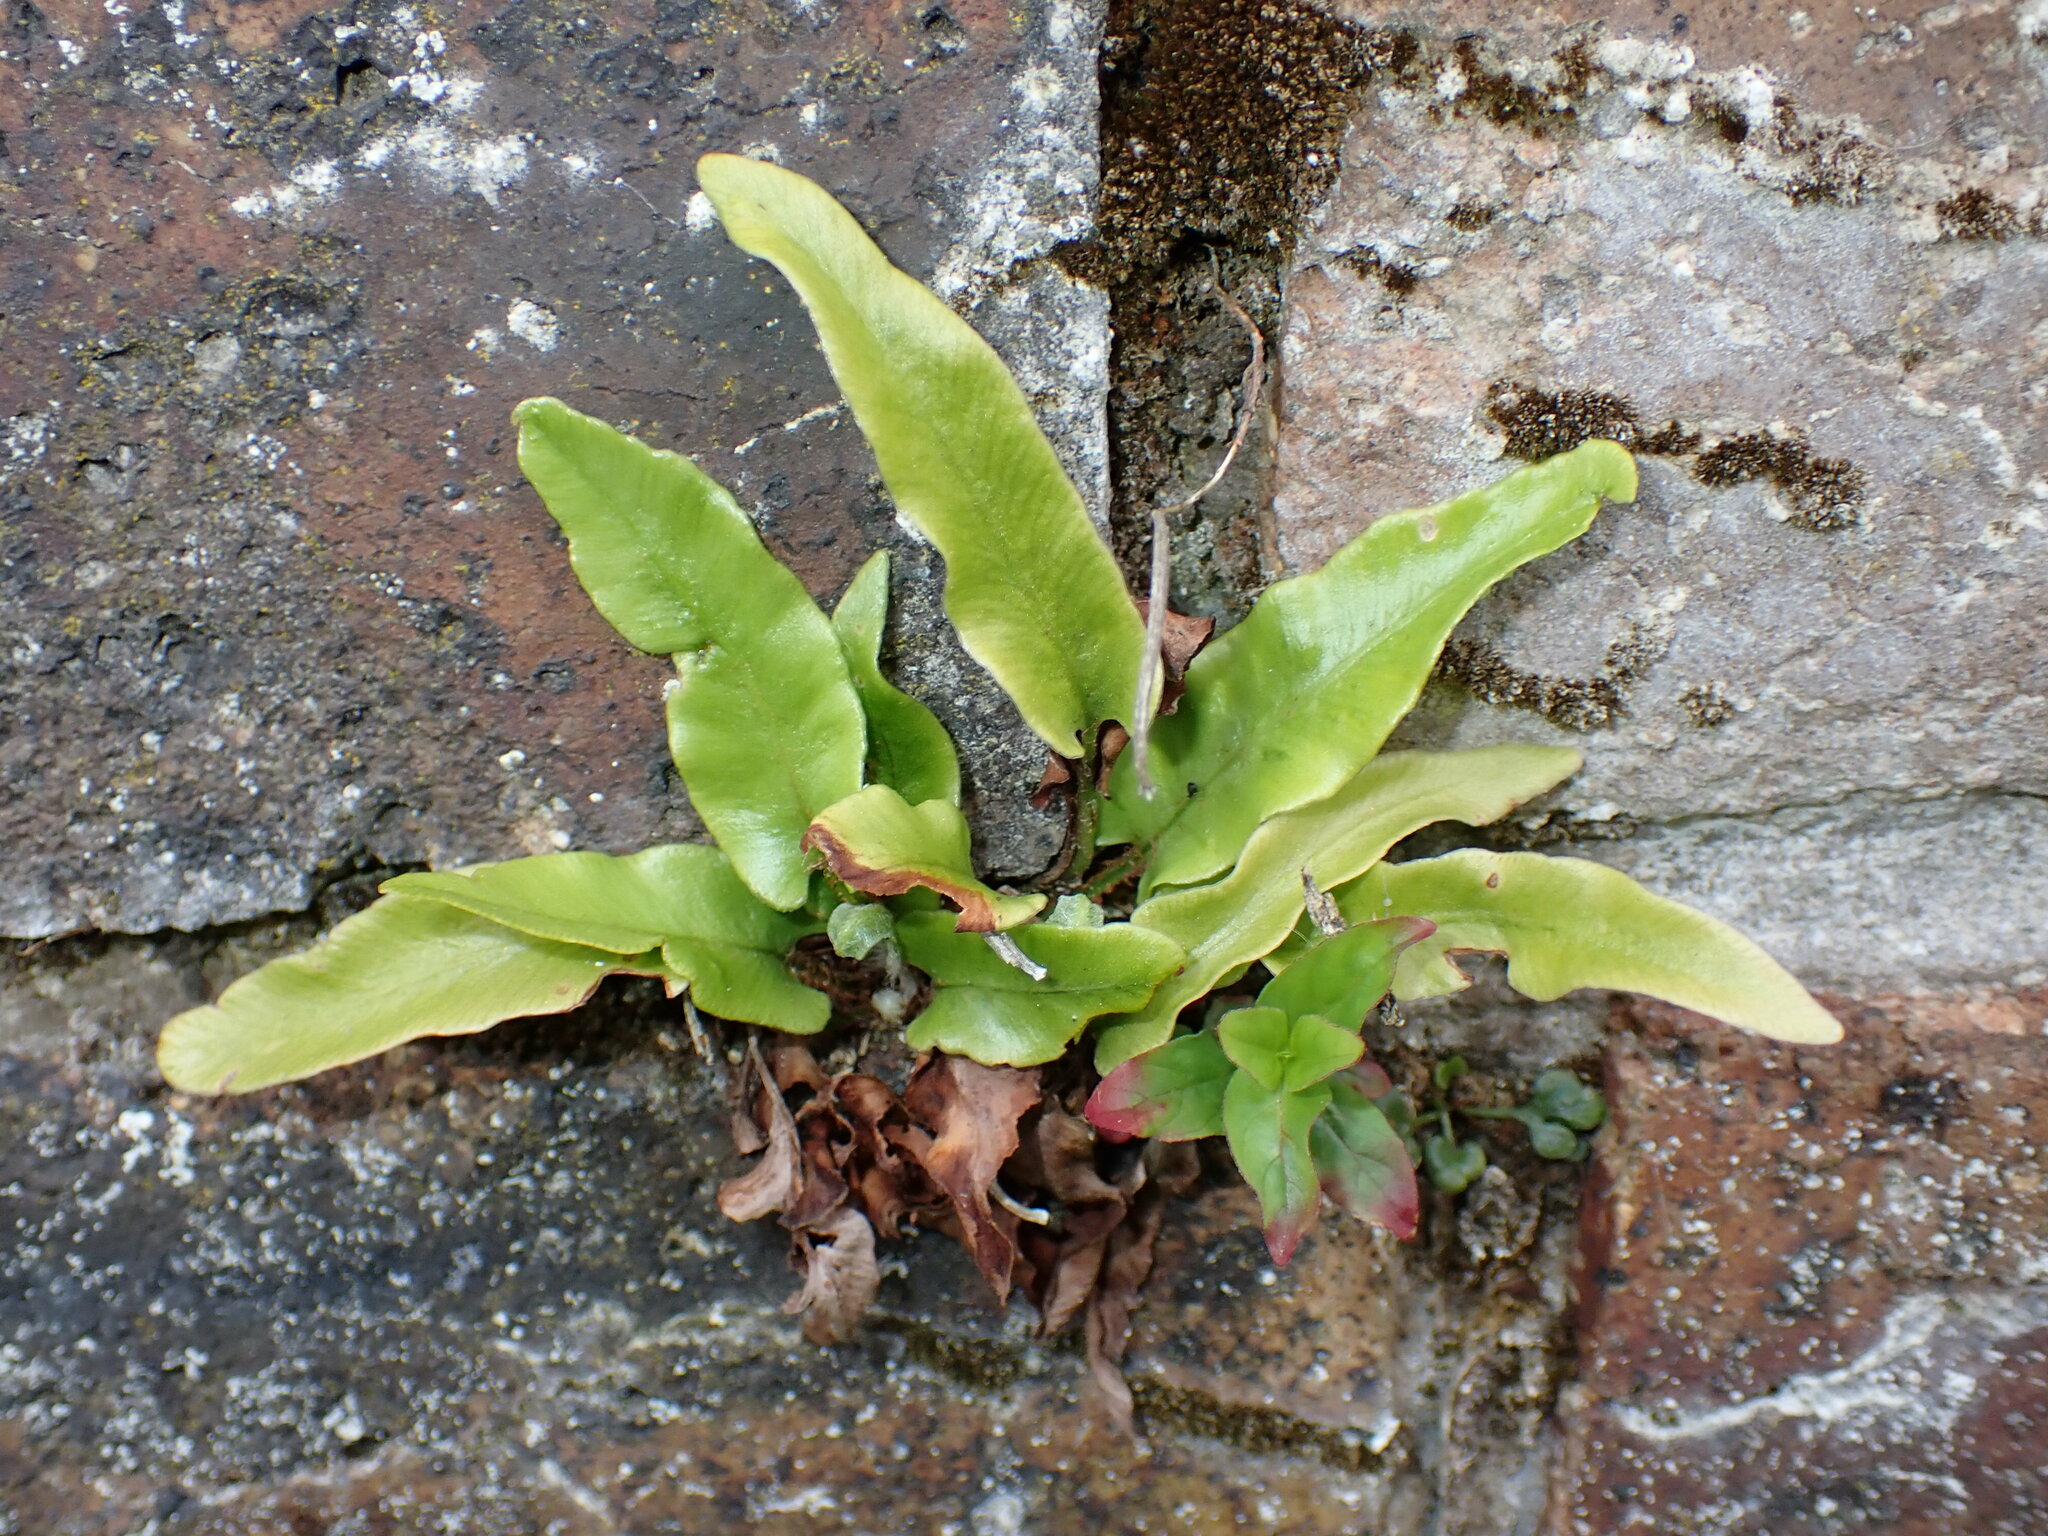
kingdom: Plantae
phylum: Tracheophyta
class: Polypodiopsida
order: Polypodiales
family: Aspleniaceae
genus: Asplenium
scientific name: Asplenium scolopendrium
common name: Hart's-tongue fern
